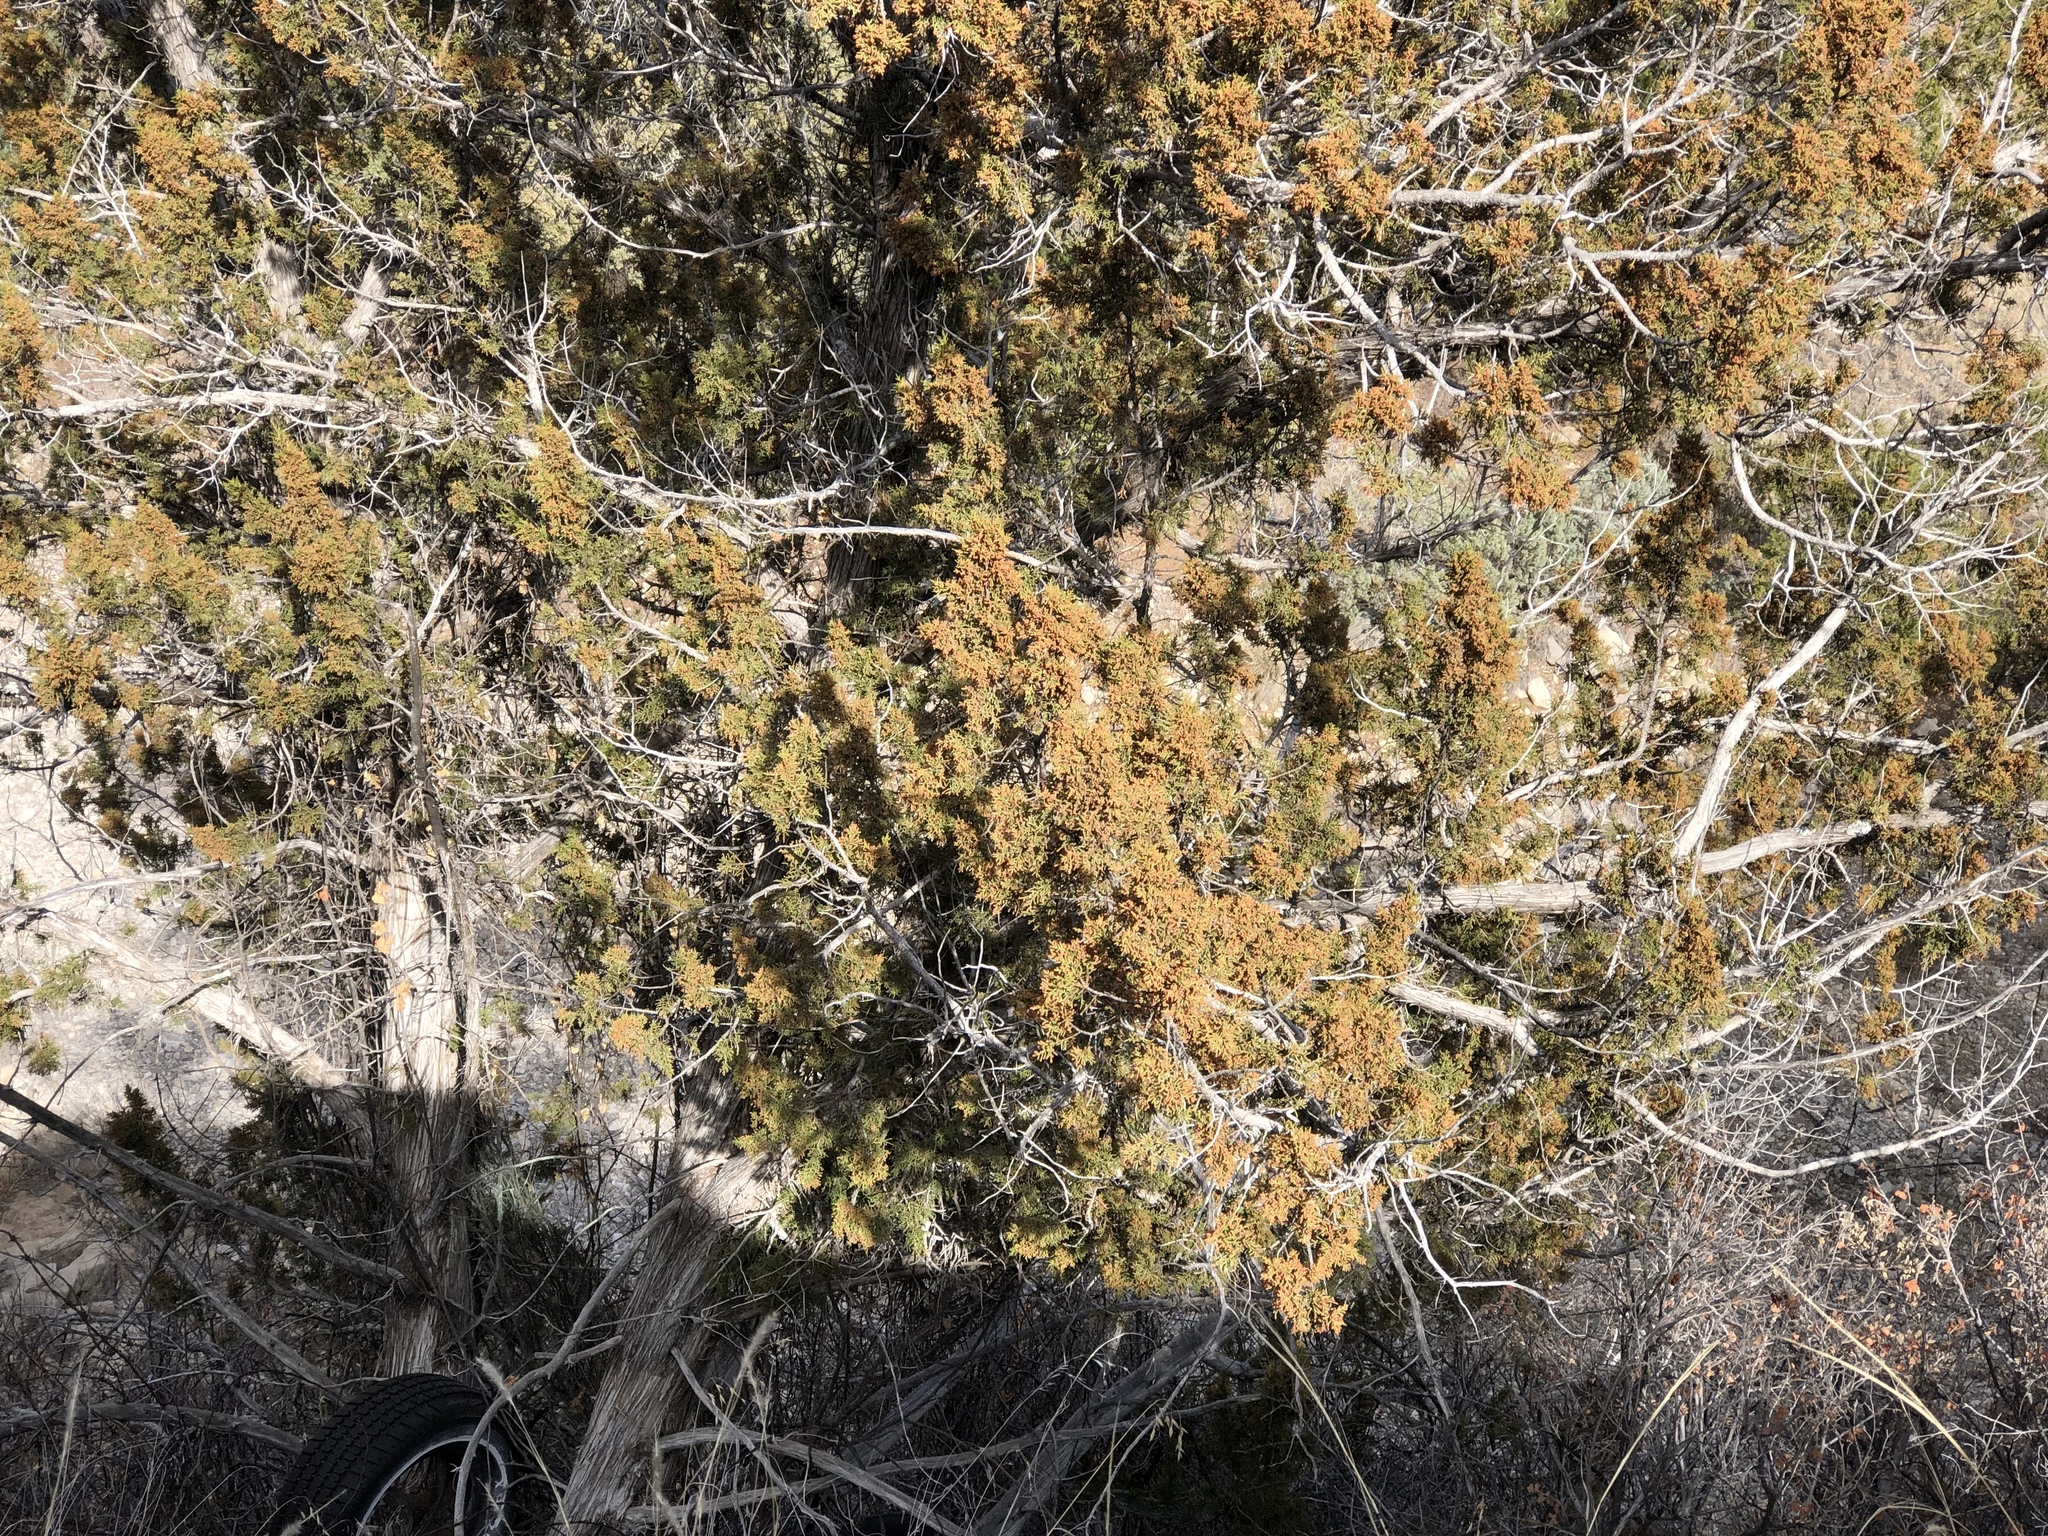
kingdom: Plantae
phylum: Tracheophyta
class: Pinopsida
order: Pinales
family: Cupressaceae
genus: Juniperus
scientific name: Juniperus monosperma
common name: One-seed juniper
